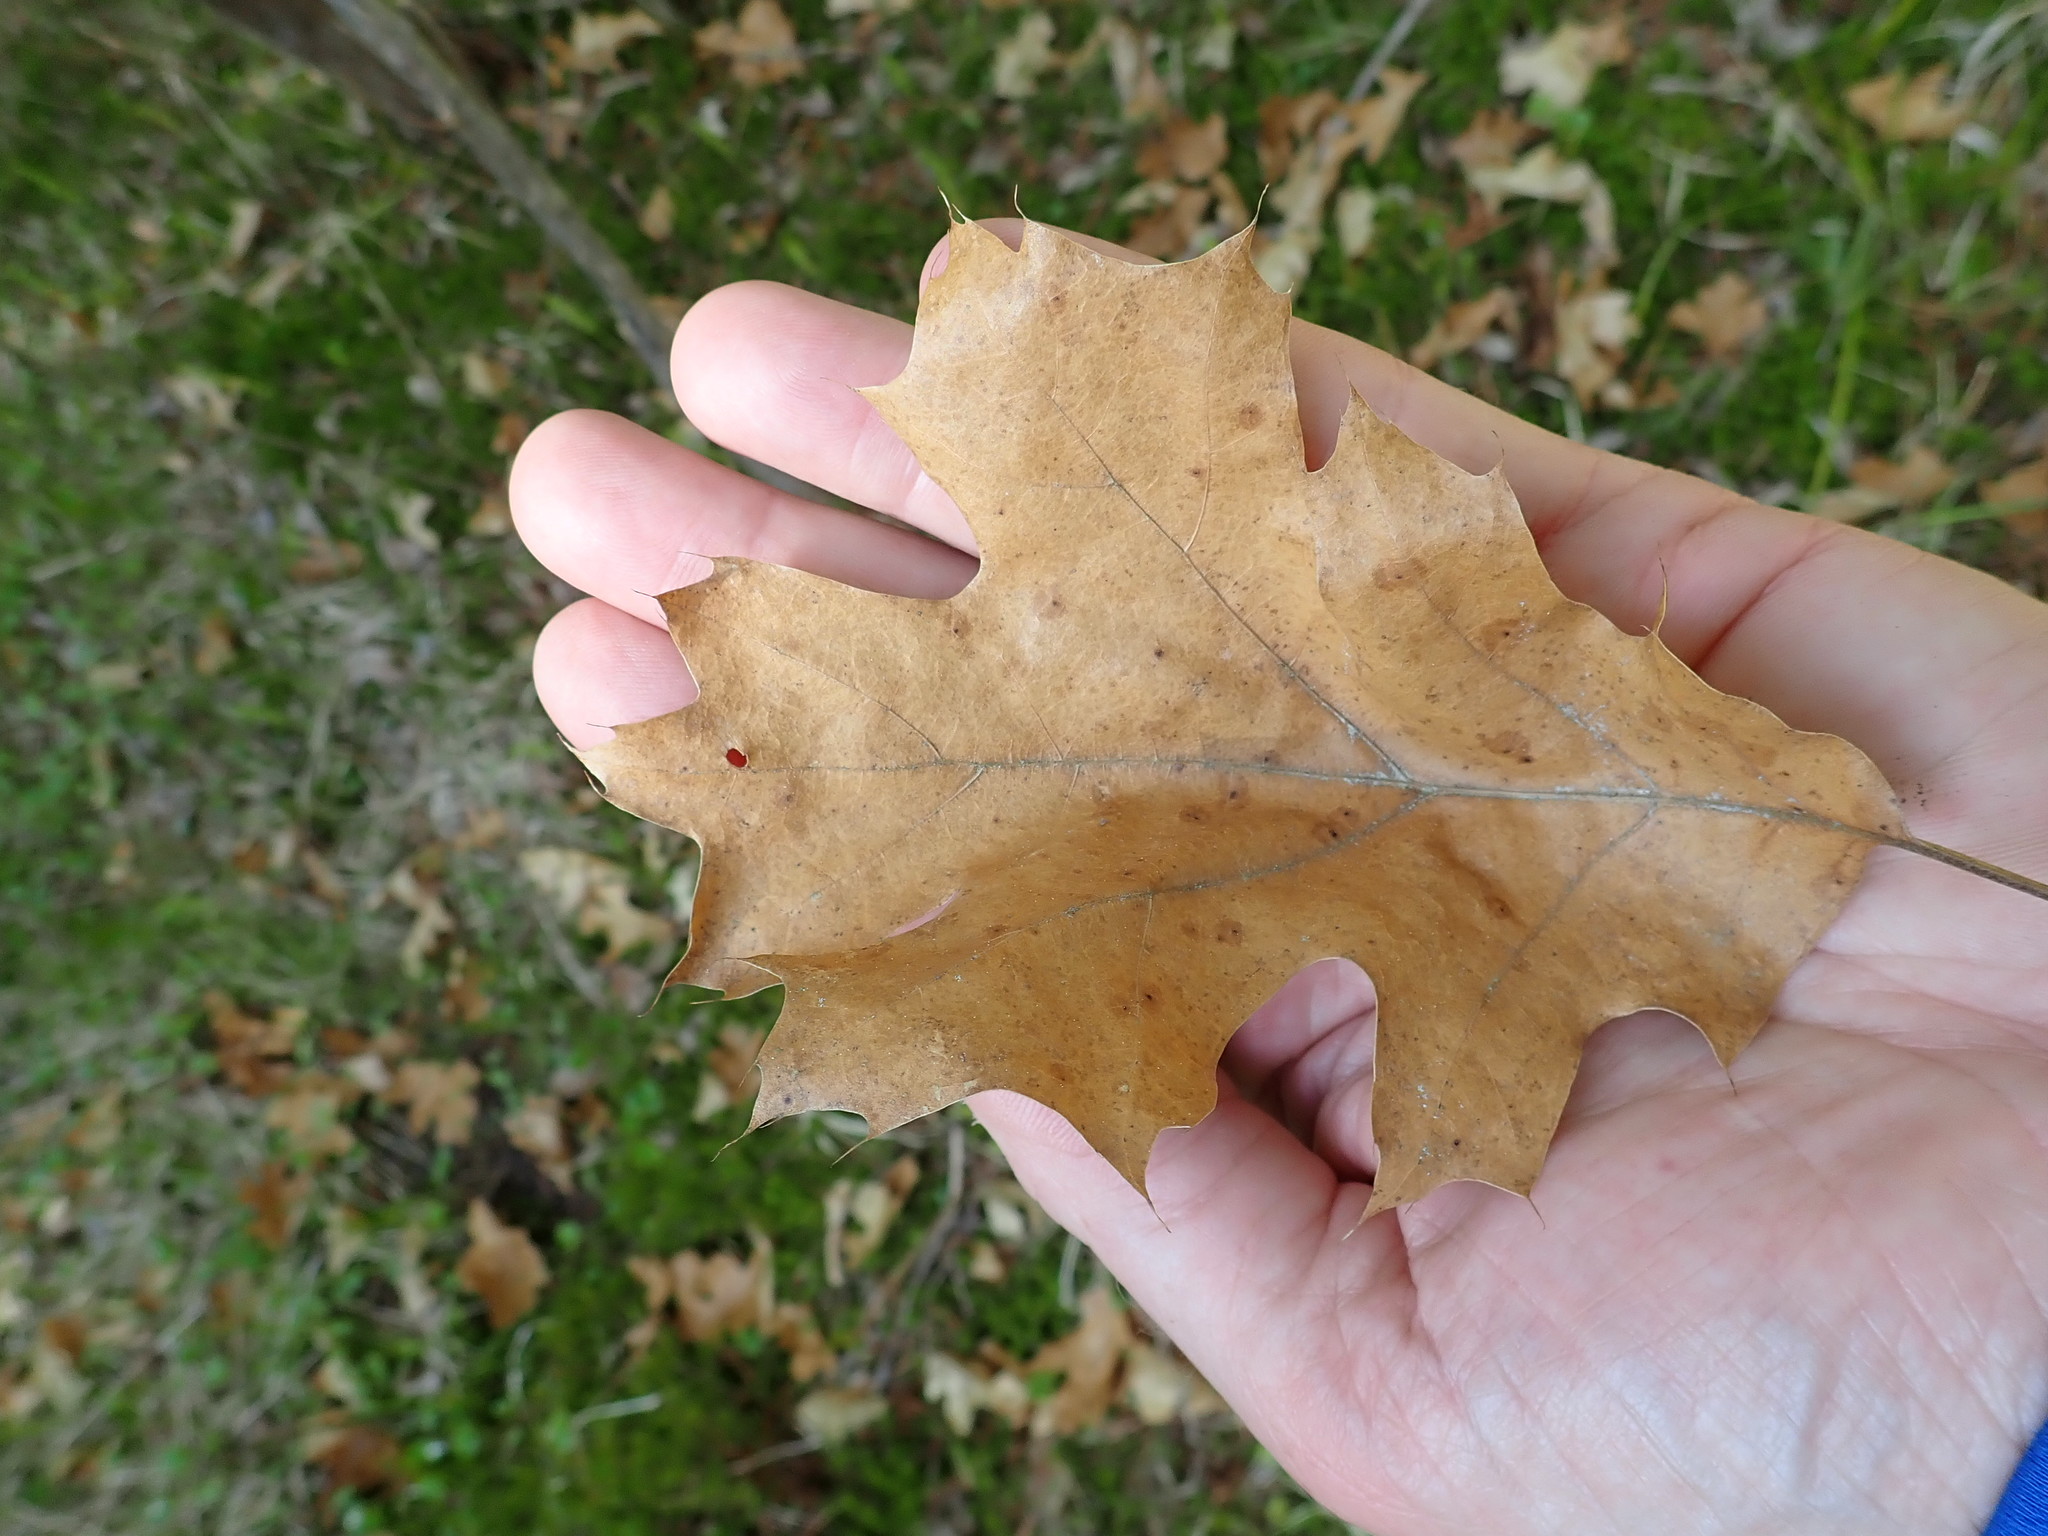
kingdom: Plantae
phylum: Tracheophyta
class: Magnoliopsida
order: Fagales
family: Fagaceae
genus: Quercus
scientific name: Quercus ellipsoidalis
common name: Hill's oak
